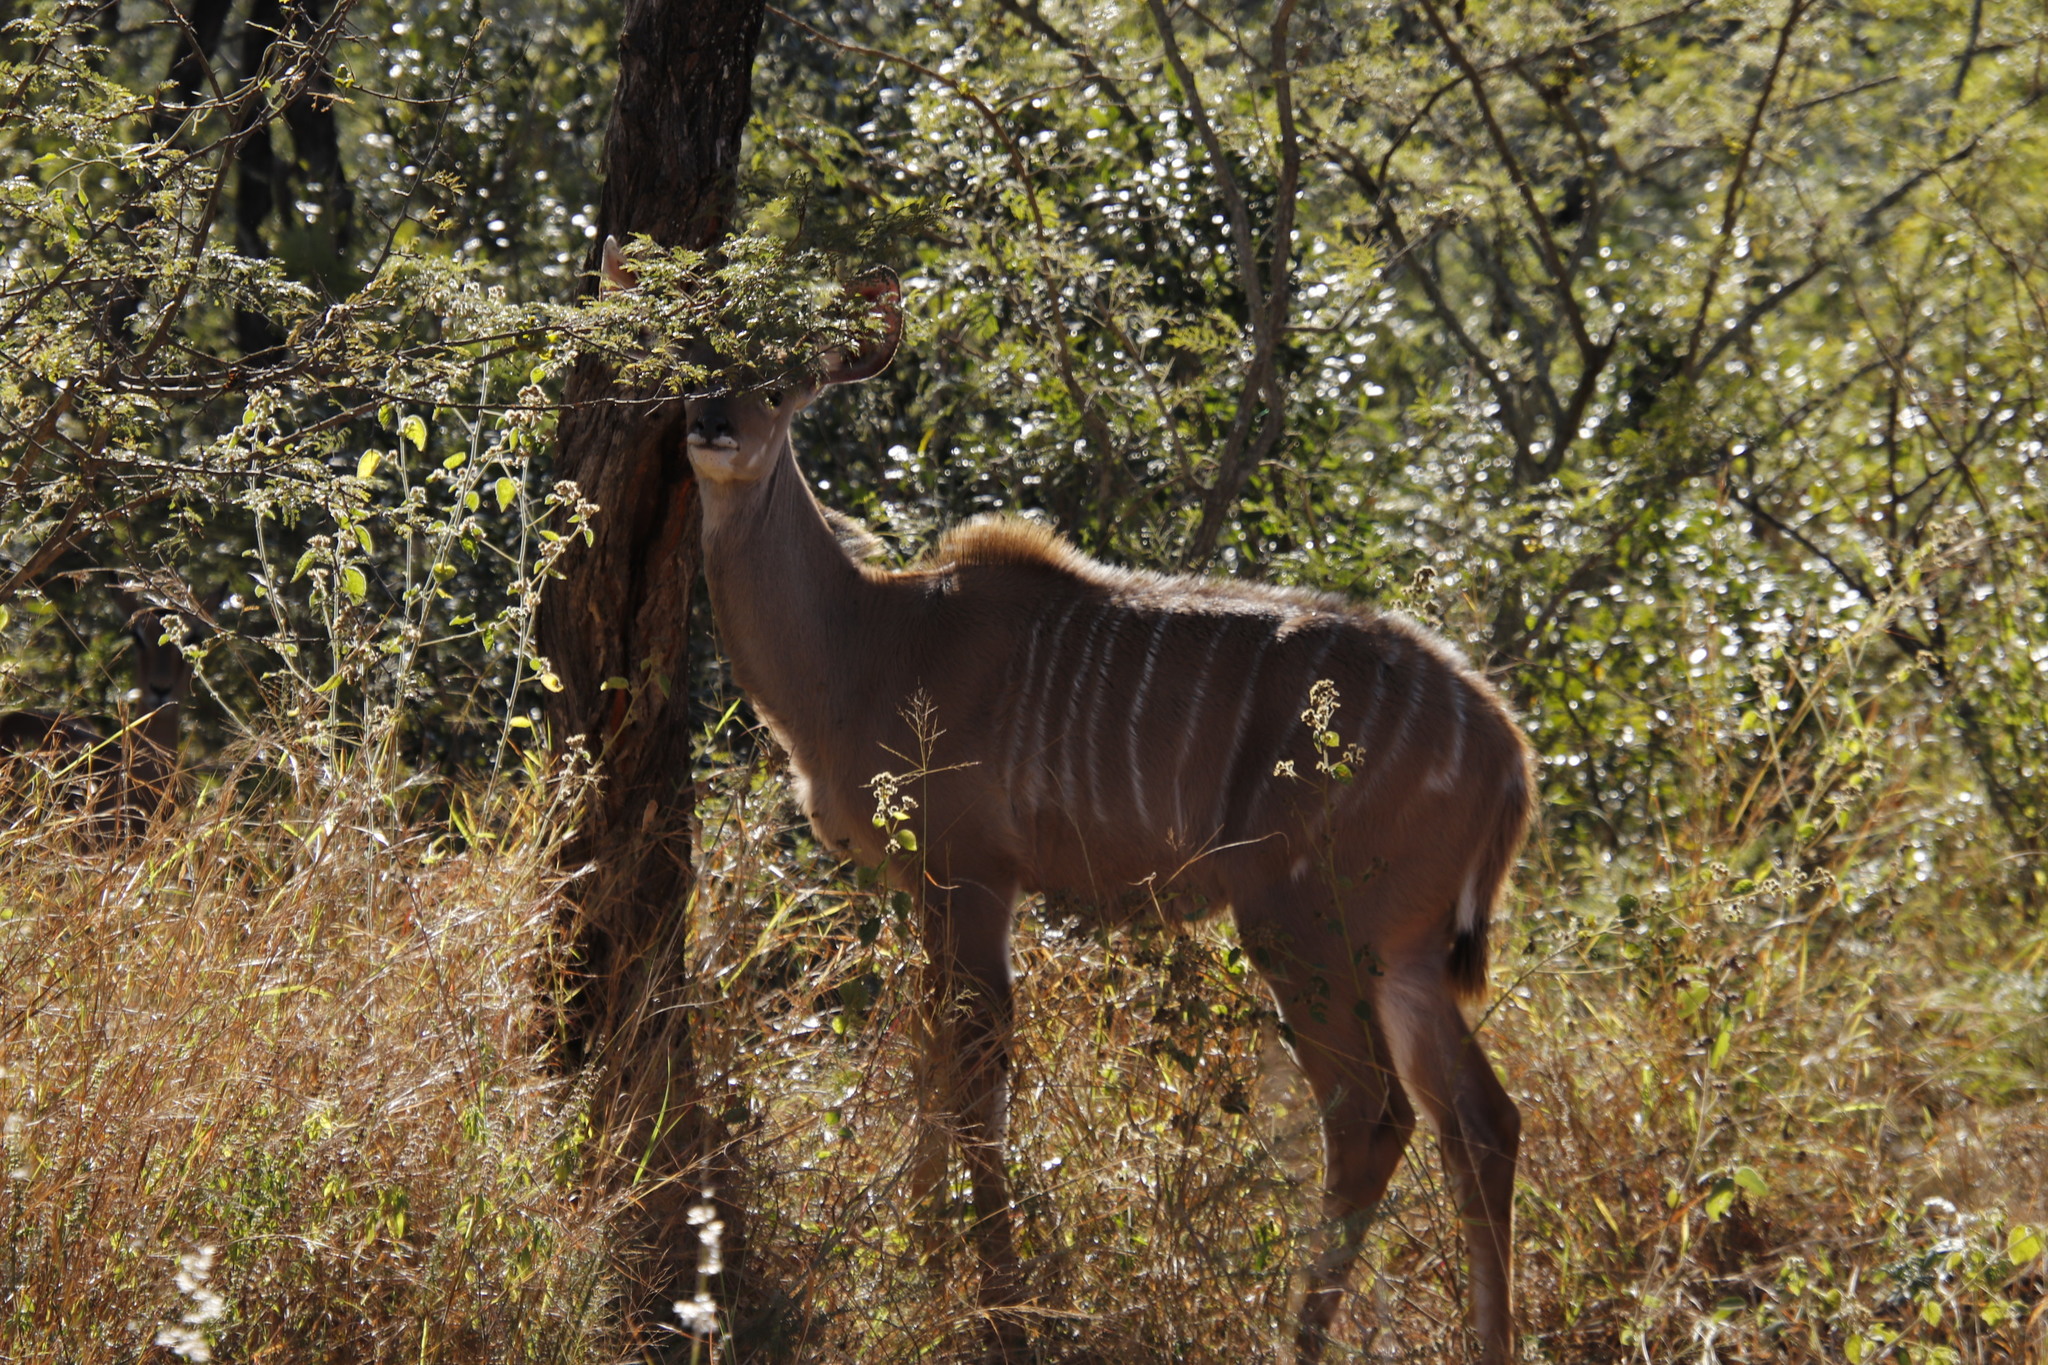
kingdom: Animalia
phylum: Chordata
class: Mammalia
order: Artiodactyla
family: Bovidae
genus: Tragelaphus
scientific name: Tragelaphus strepsiceros
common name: Greater kudu
